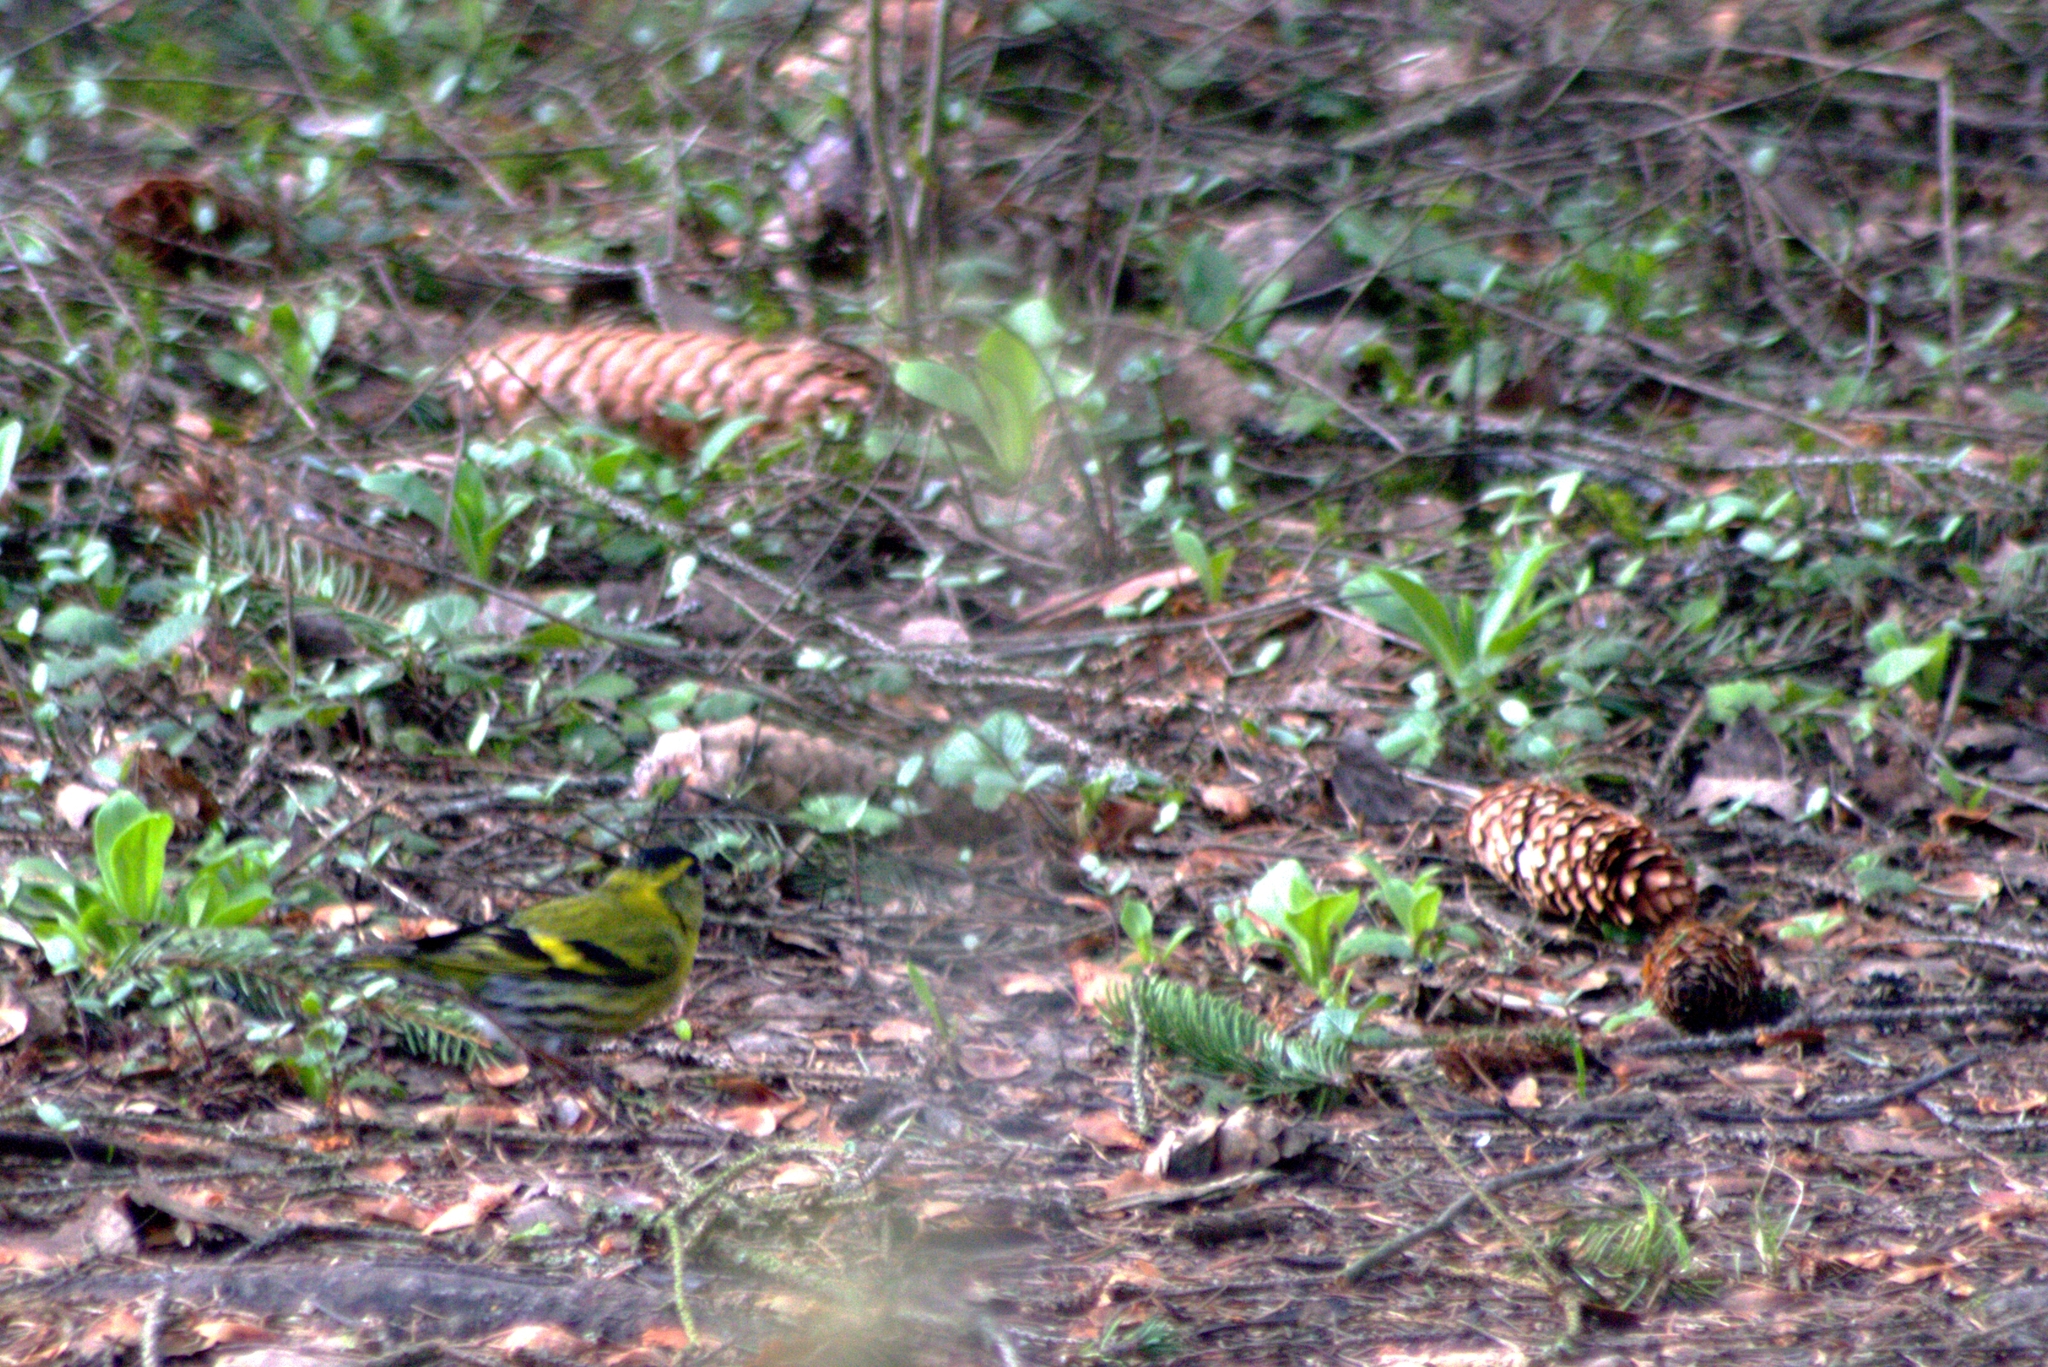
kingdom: Animalia
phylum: Chordata
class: Aves
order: Passeriformes
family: Fringillidae
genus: Spinus
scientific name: Spinus spinus
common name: Eurasian siskin
